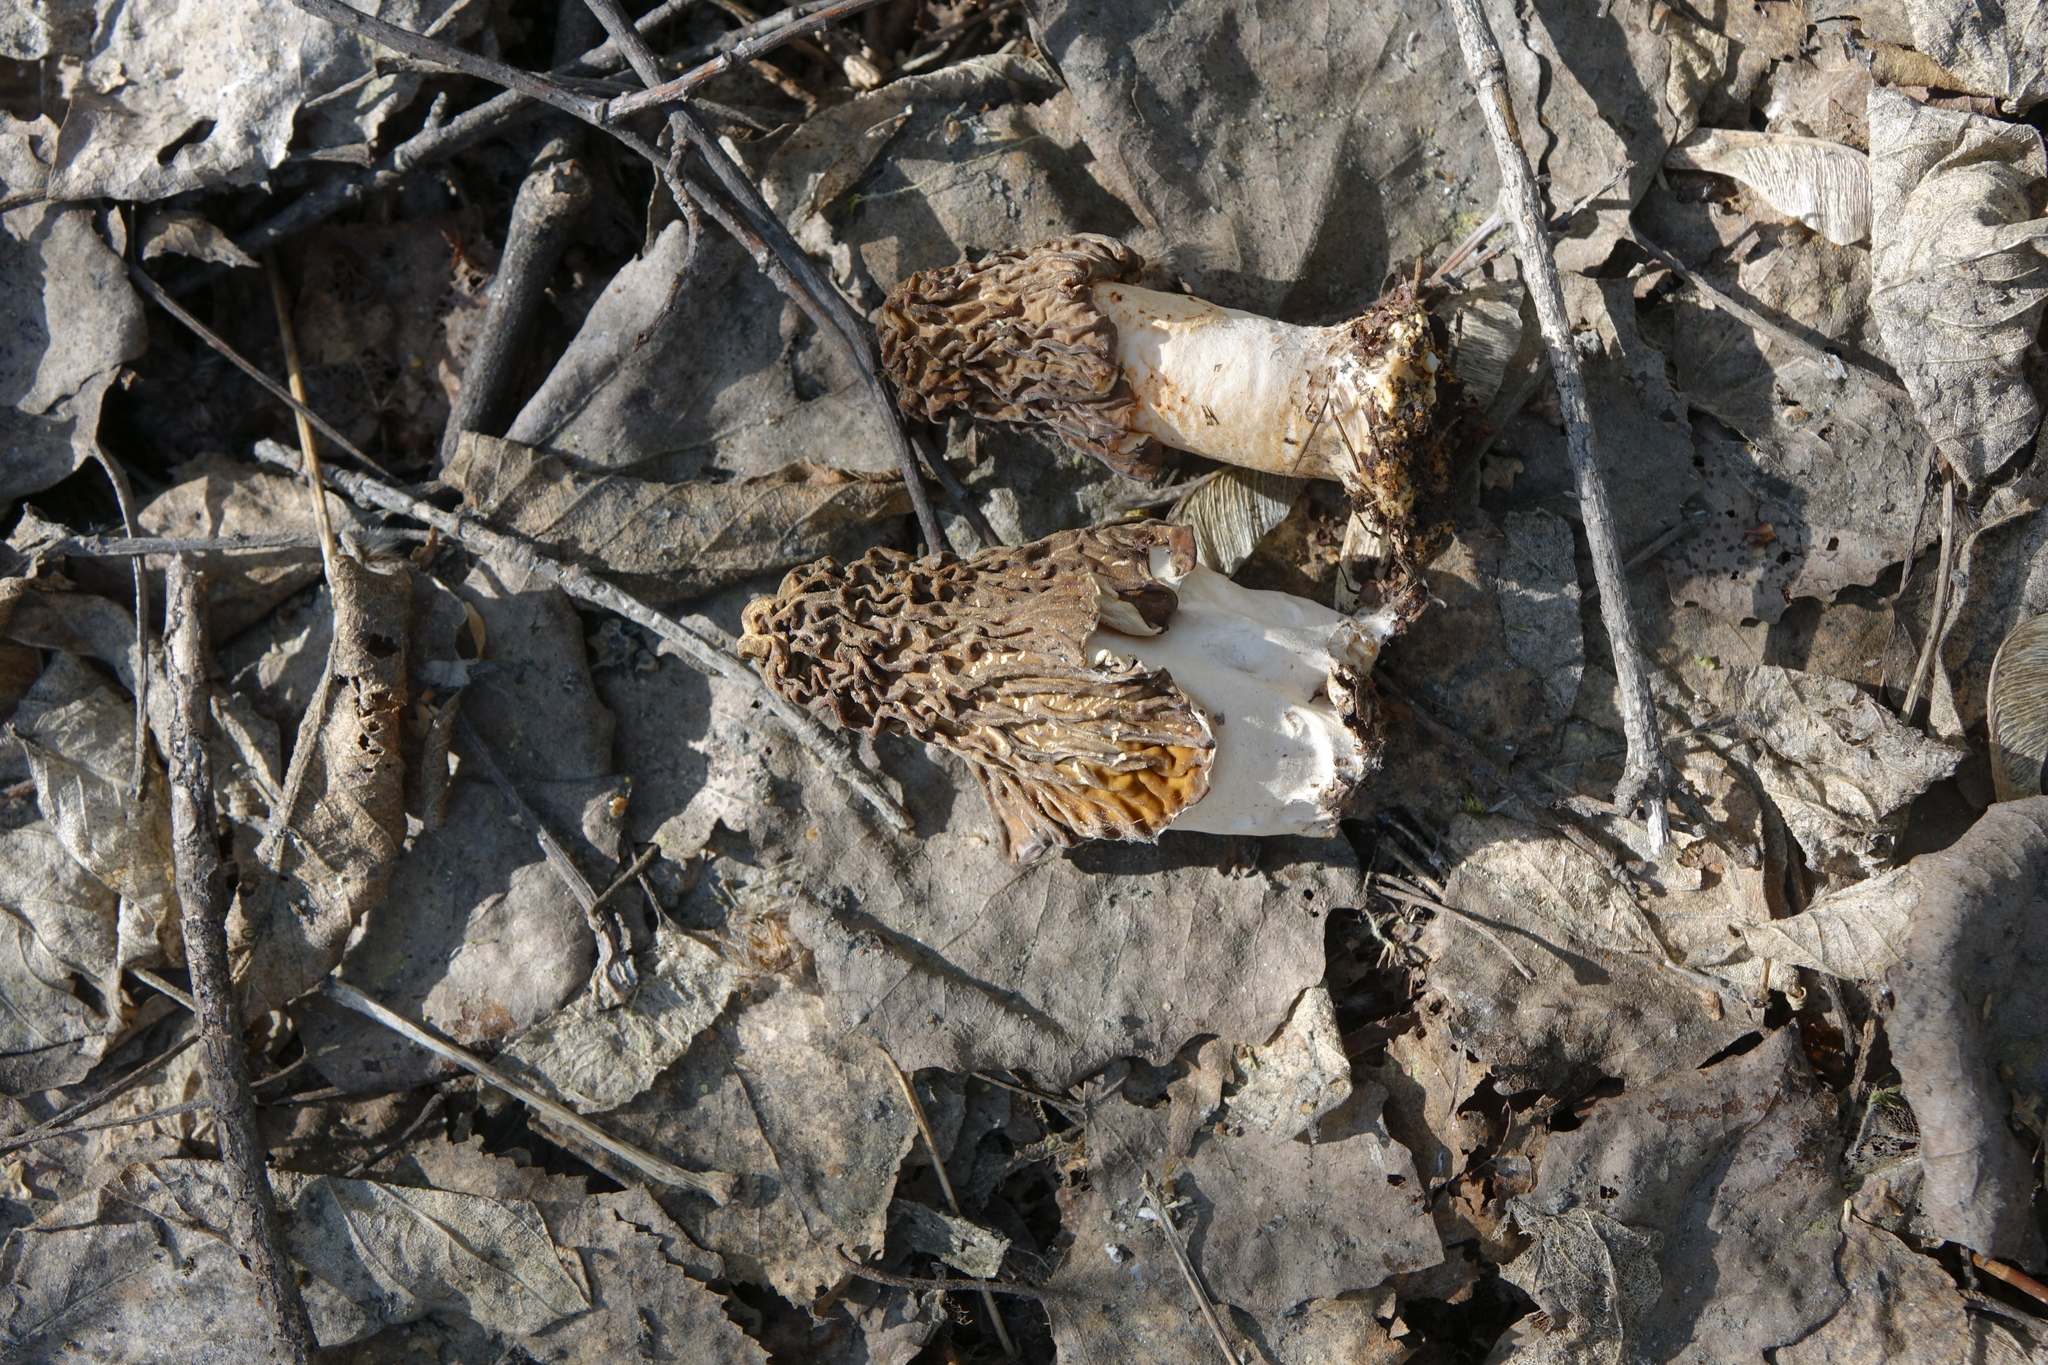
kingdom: Fungi
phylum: Ascomycota
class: Pezizomycetes
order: Pezizales
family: Morchellaceae
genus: Verpa
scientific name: Verpa bohemica
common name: Wrinkled thimble morel
